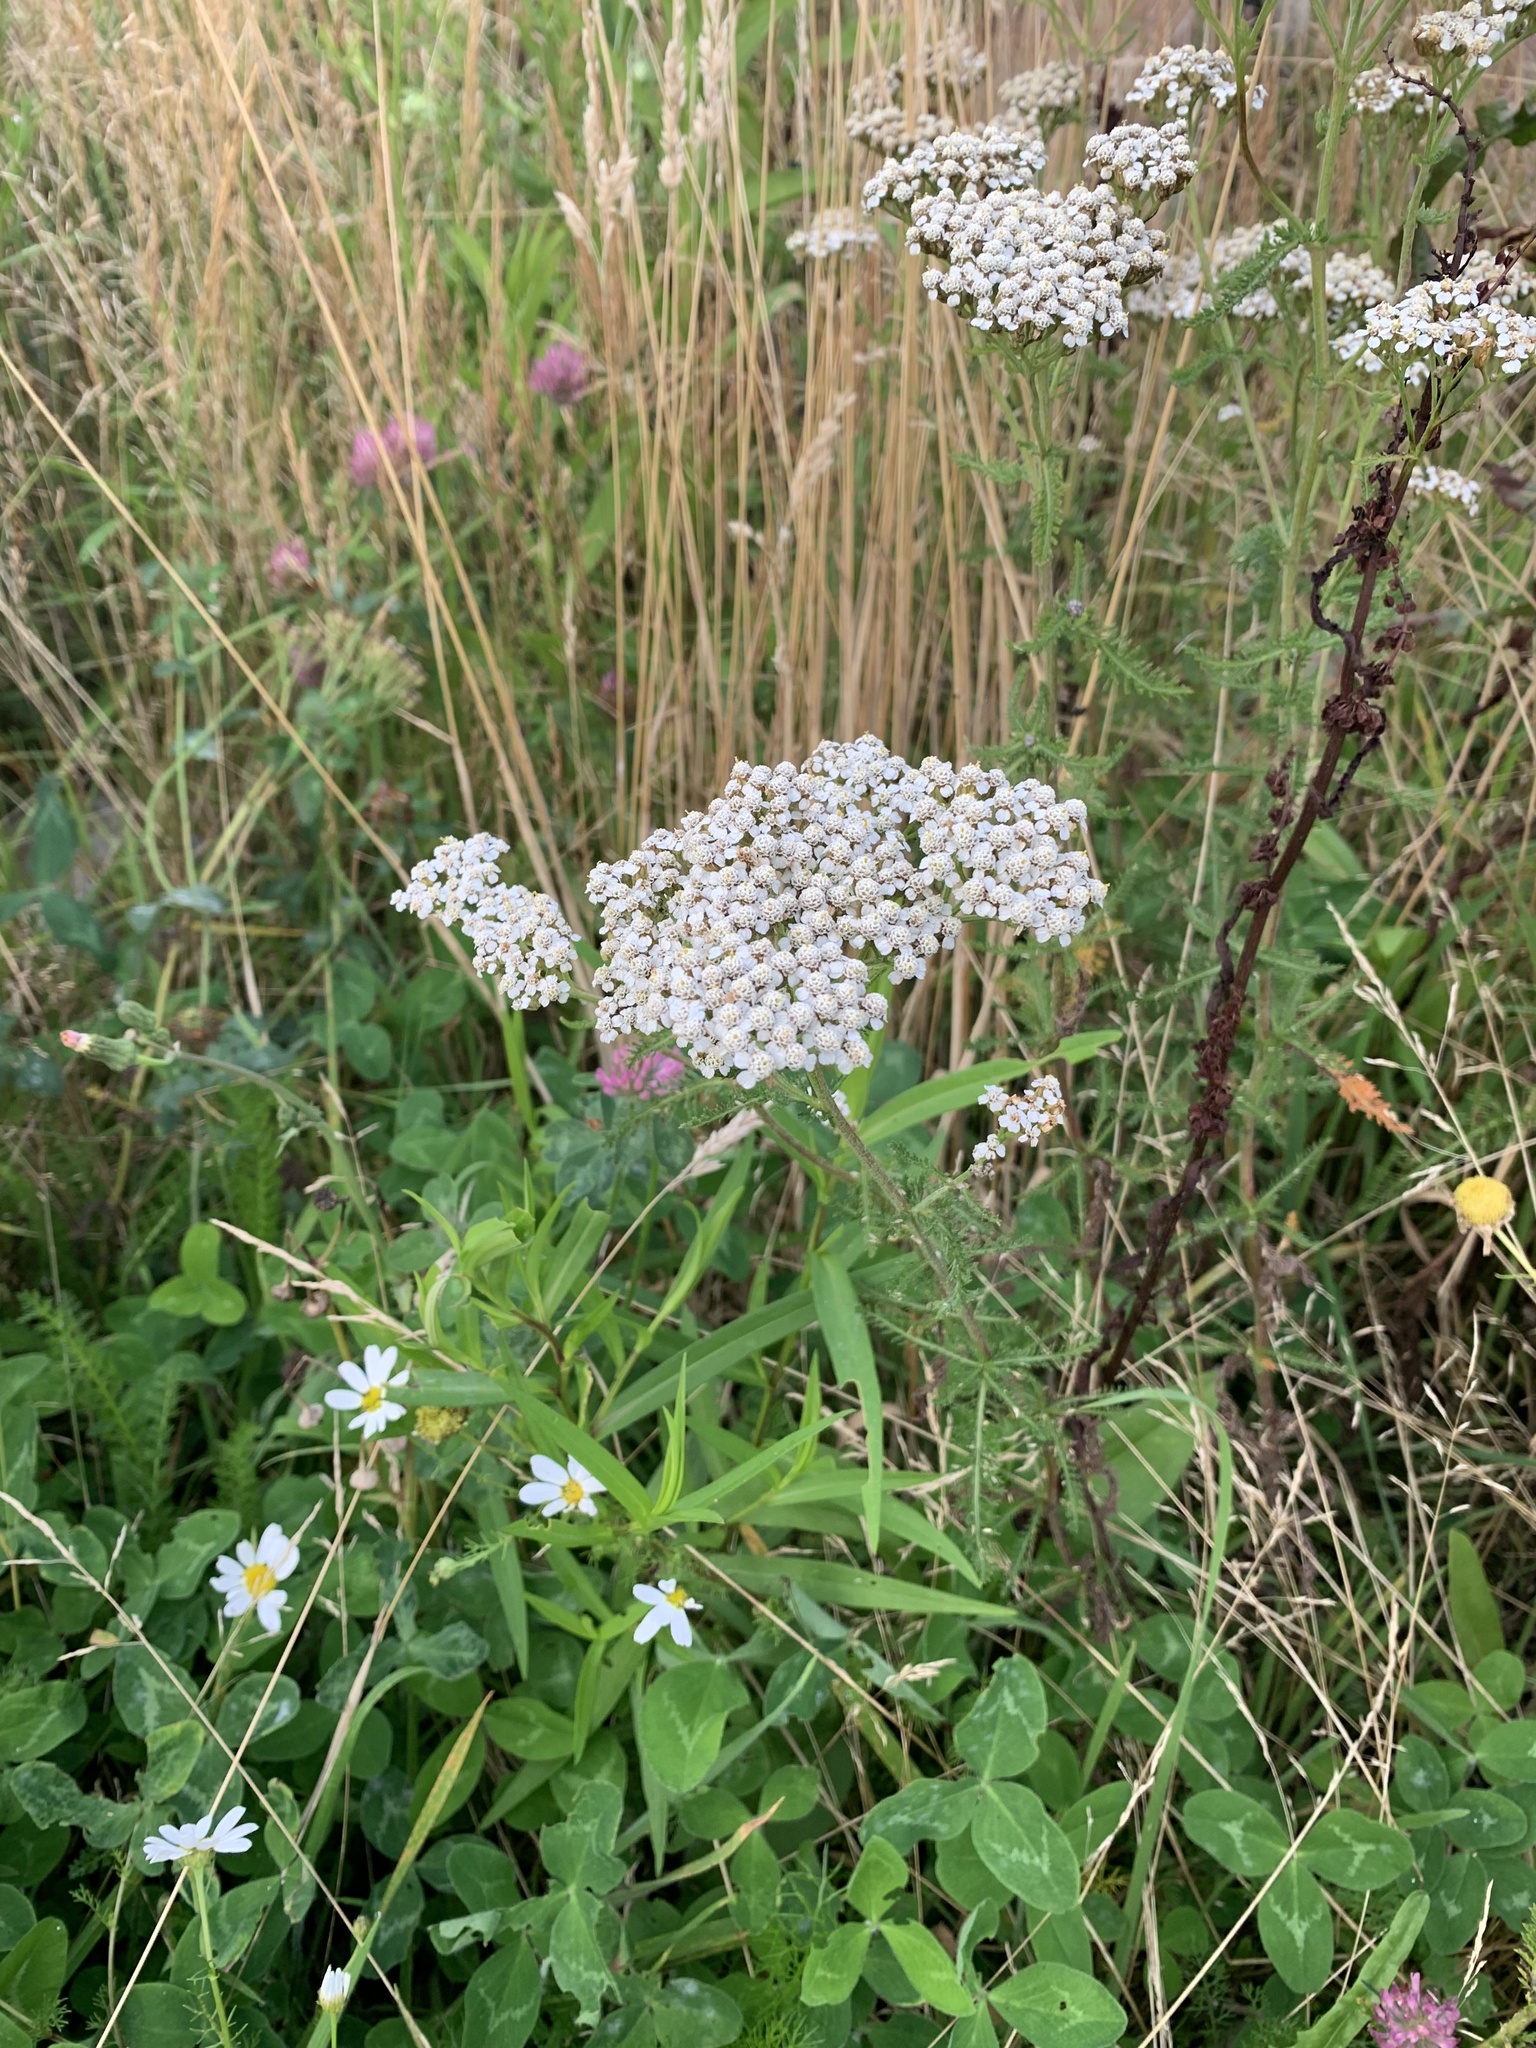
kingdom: Plantae
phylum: Tracheophyta
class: Magnoliopsida
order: Asterales
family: Asteraceae
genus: Achillea
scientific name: Achillea millefolium
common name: Yarrow
